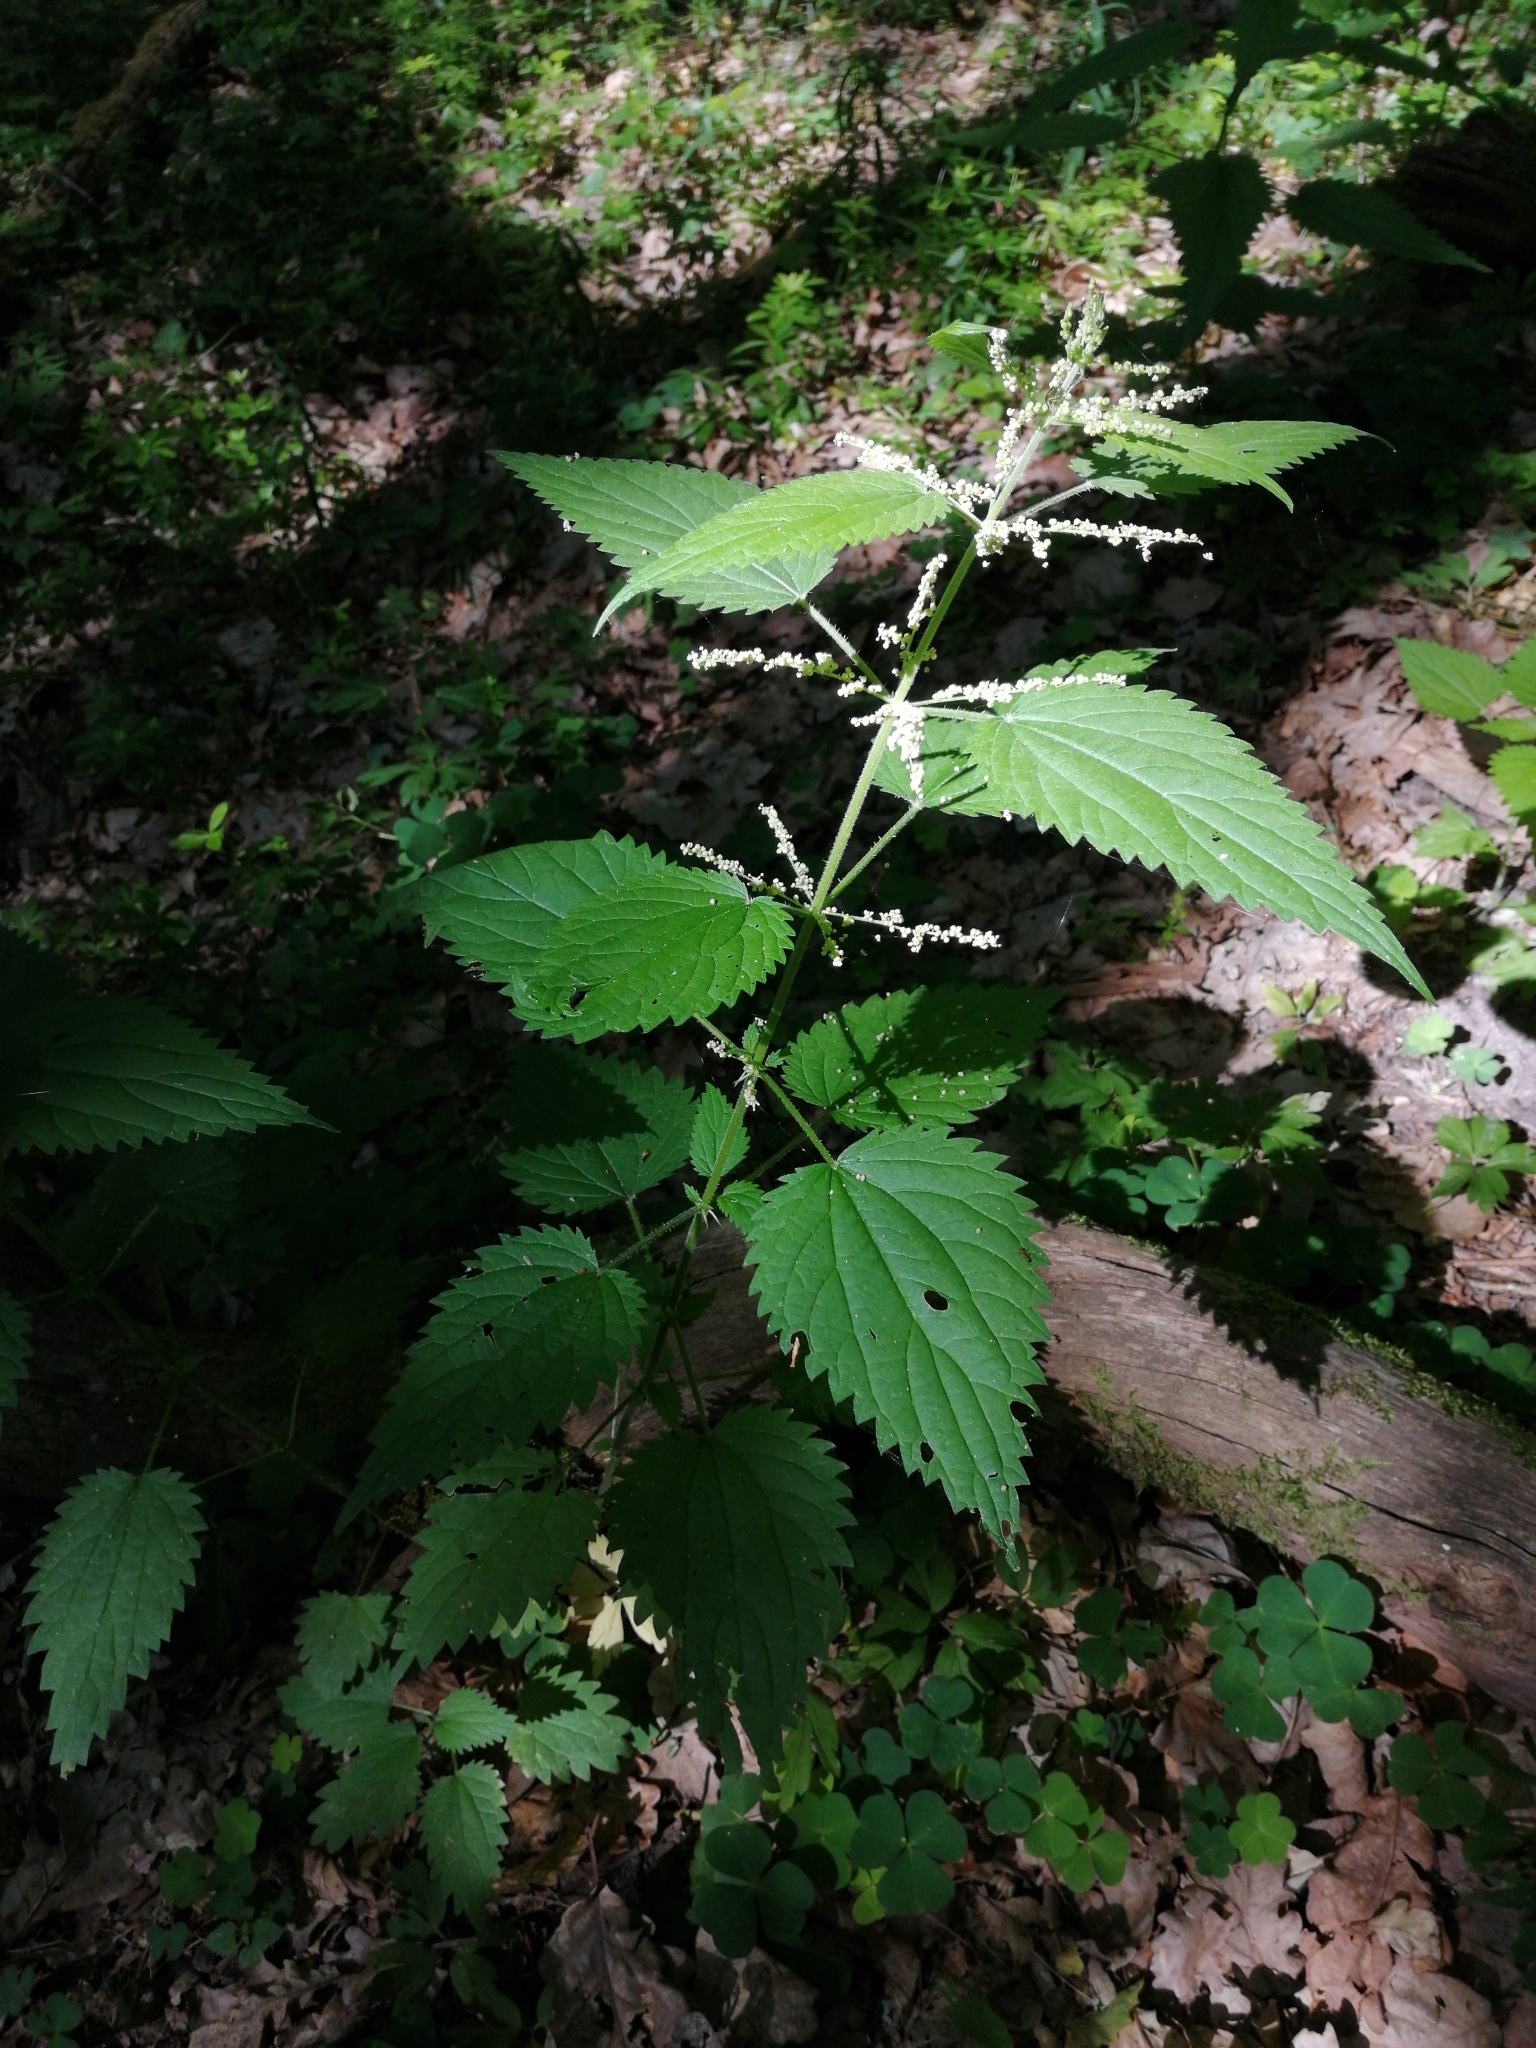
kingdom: Plantae
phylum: Tracheophyta
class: Magnoliopsida
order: Rosales
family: Urticaceae
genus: Urtica
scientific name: Urtica dioica
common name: Common nettle
